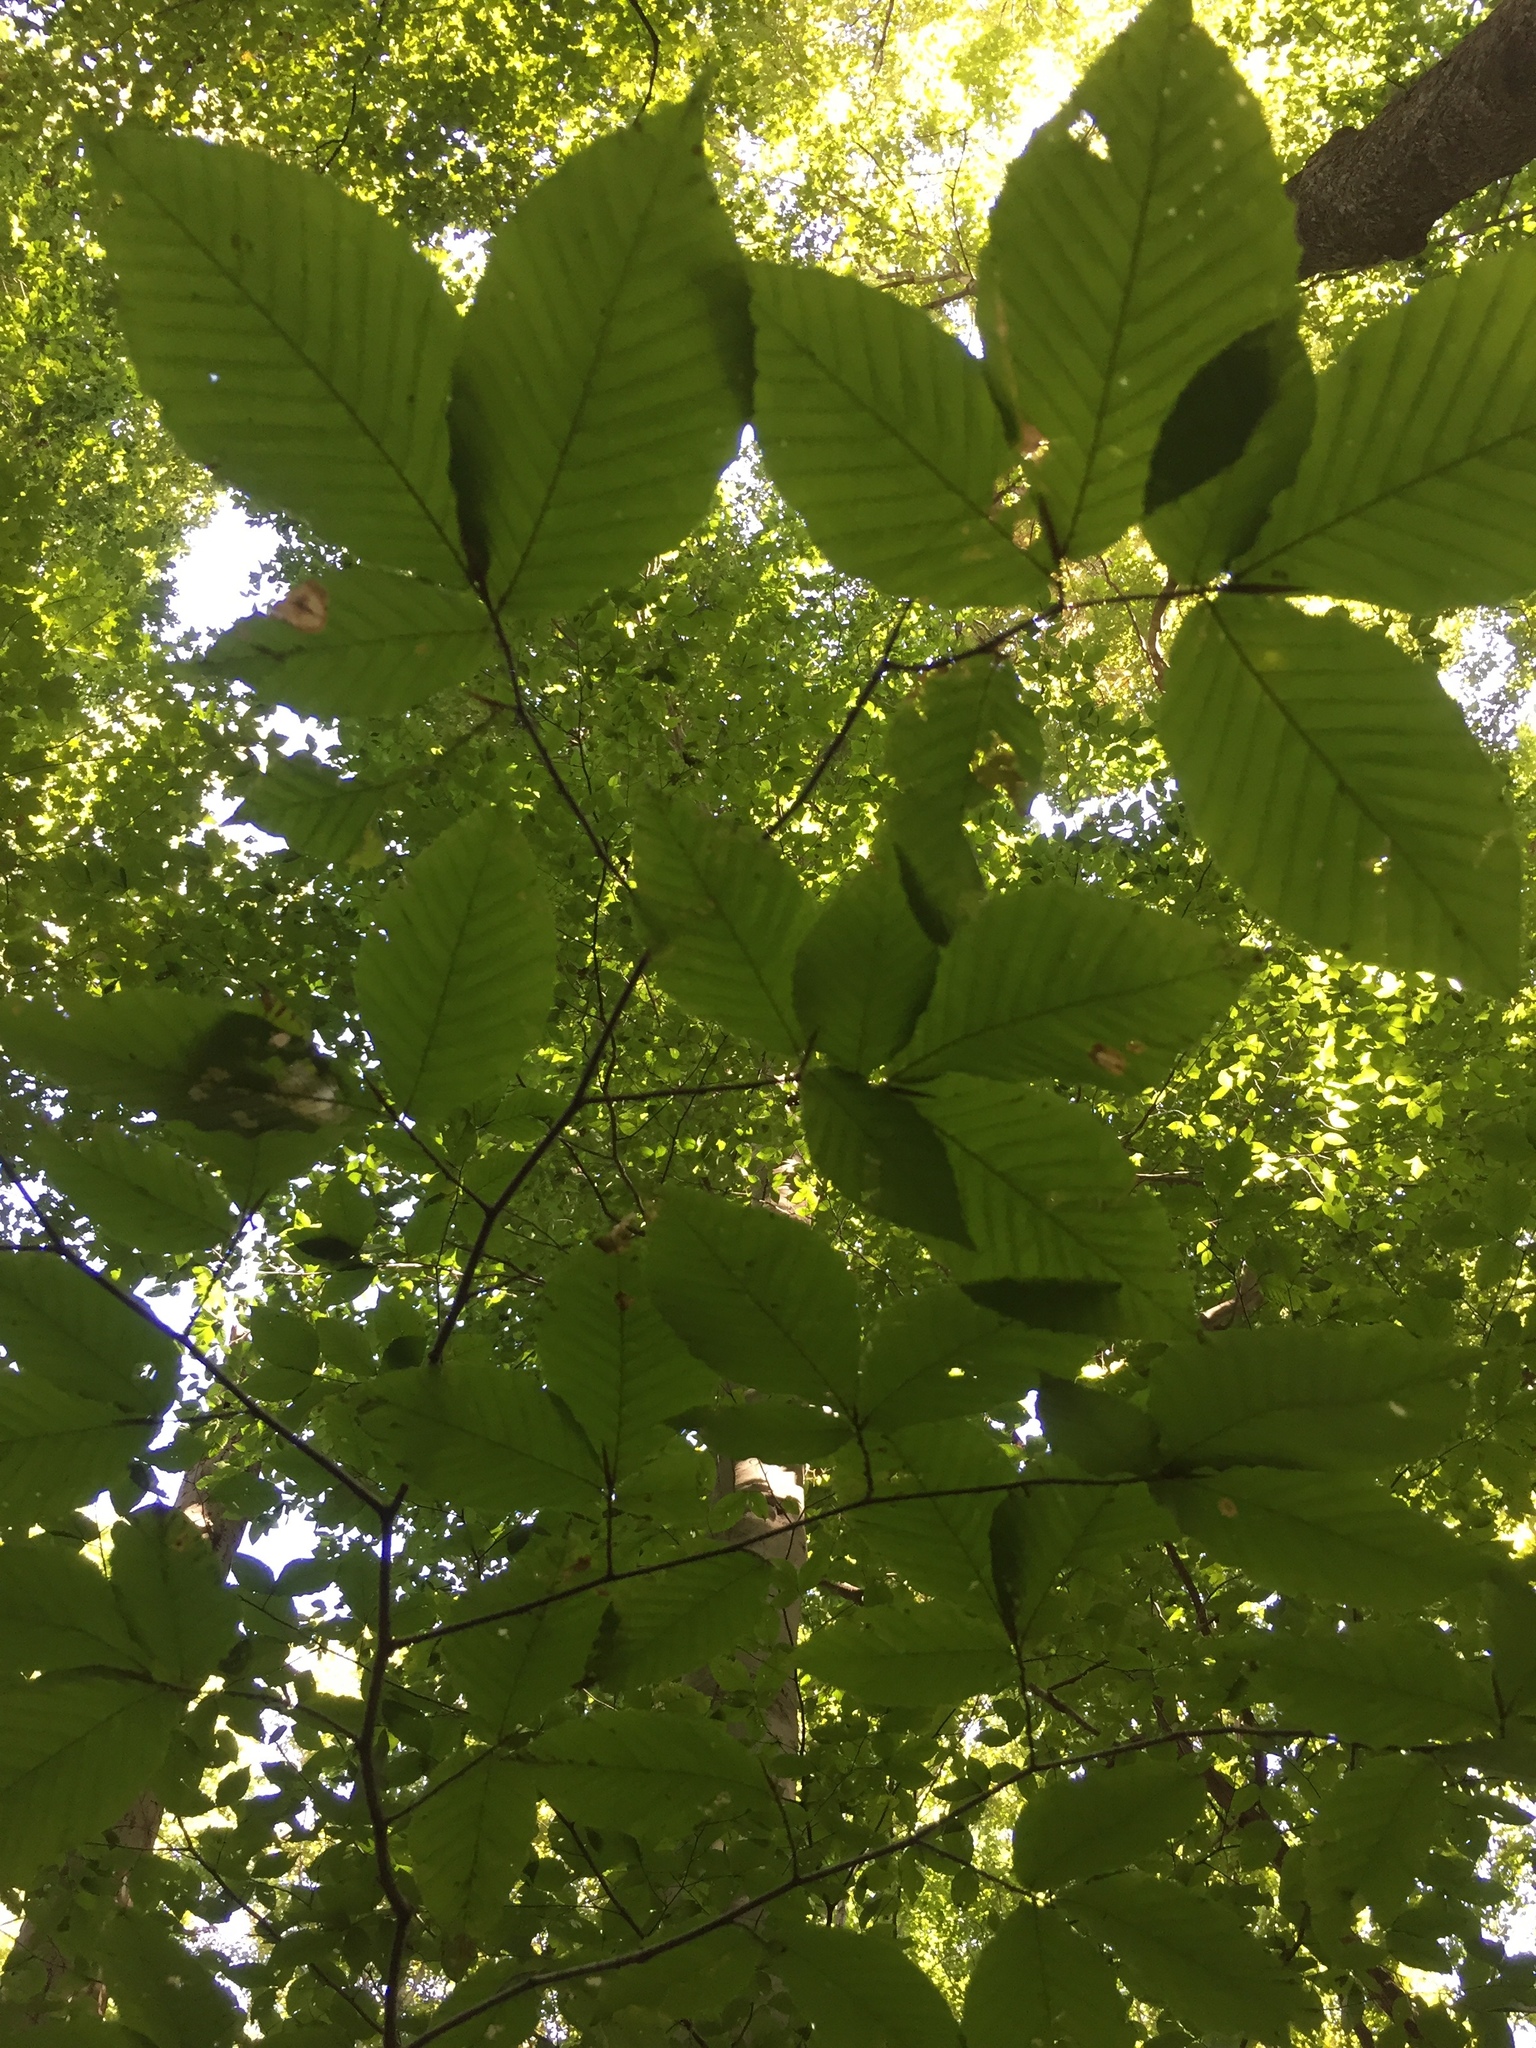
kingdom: Plantae
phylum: Tracheophyta
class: Magnoliopsida
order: Fagales
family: Fagaceae
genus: Fagus
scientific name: Fagus grandifolia
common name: American beech
